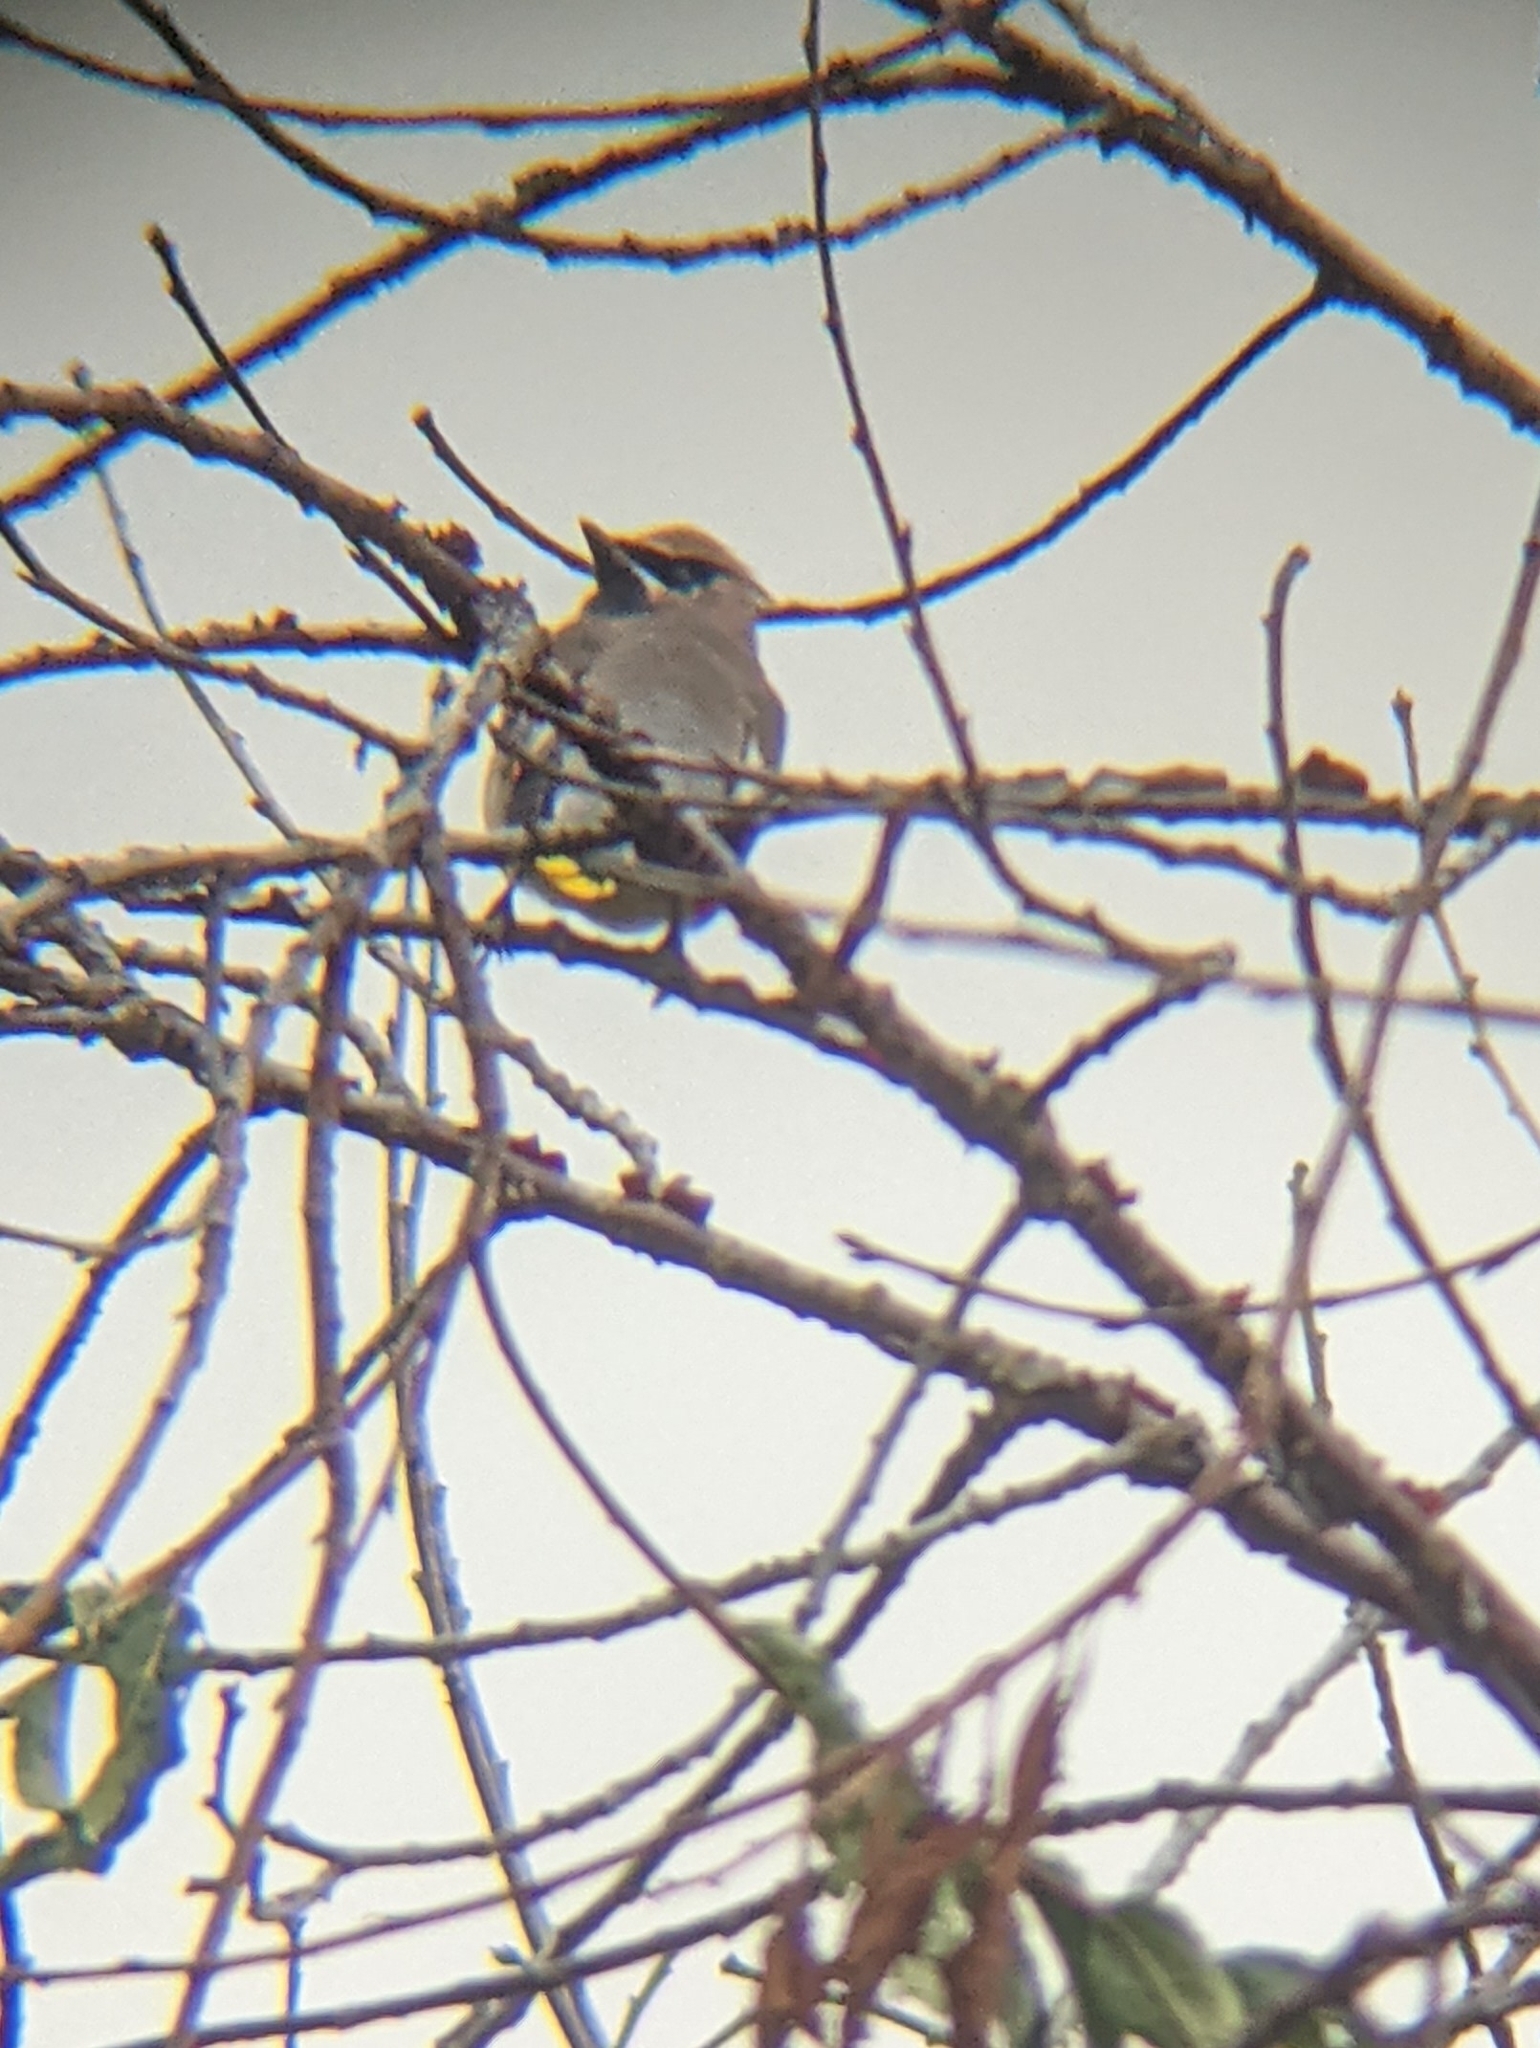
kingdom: Animalia
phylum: Chordata
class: Aves
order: Passeriformes
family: Bombycillidae
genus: Bombycilla
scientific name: Bombycilla cedrorum
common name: Cedar waxwing
